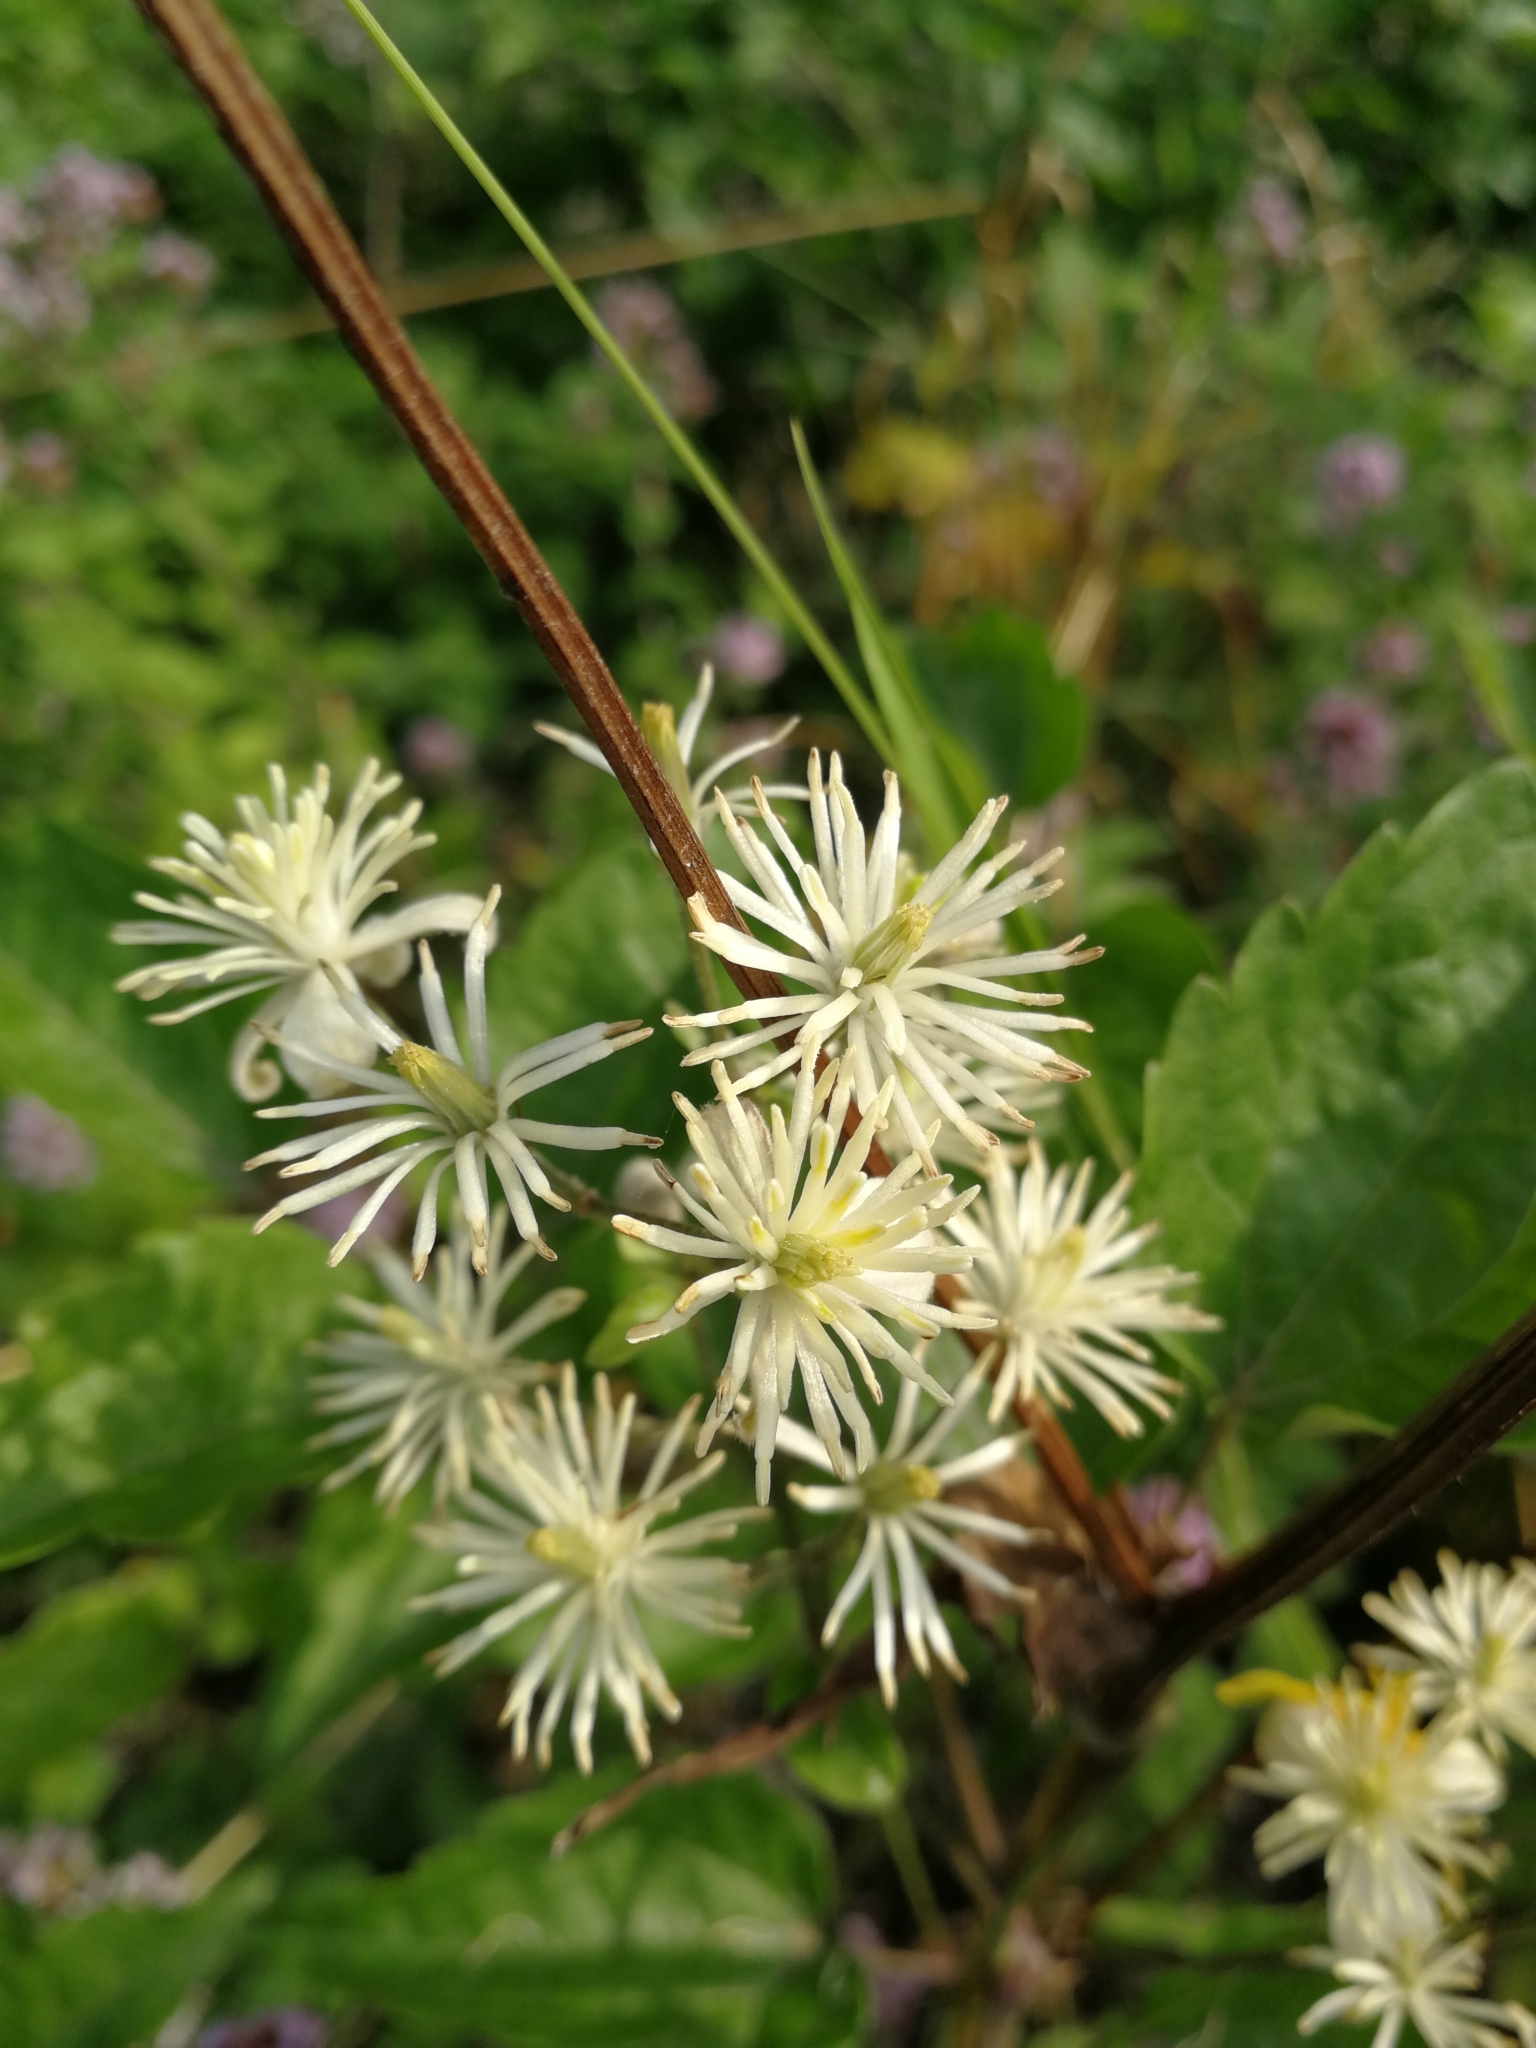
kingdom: Plantae
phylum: Tracheophyta
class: Magnoliopsida
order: Ranunculales
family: Ranunculaceae
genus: Clematis
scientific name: Clematis vitalba
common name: Evergreen clematis
